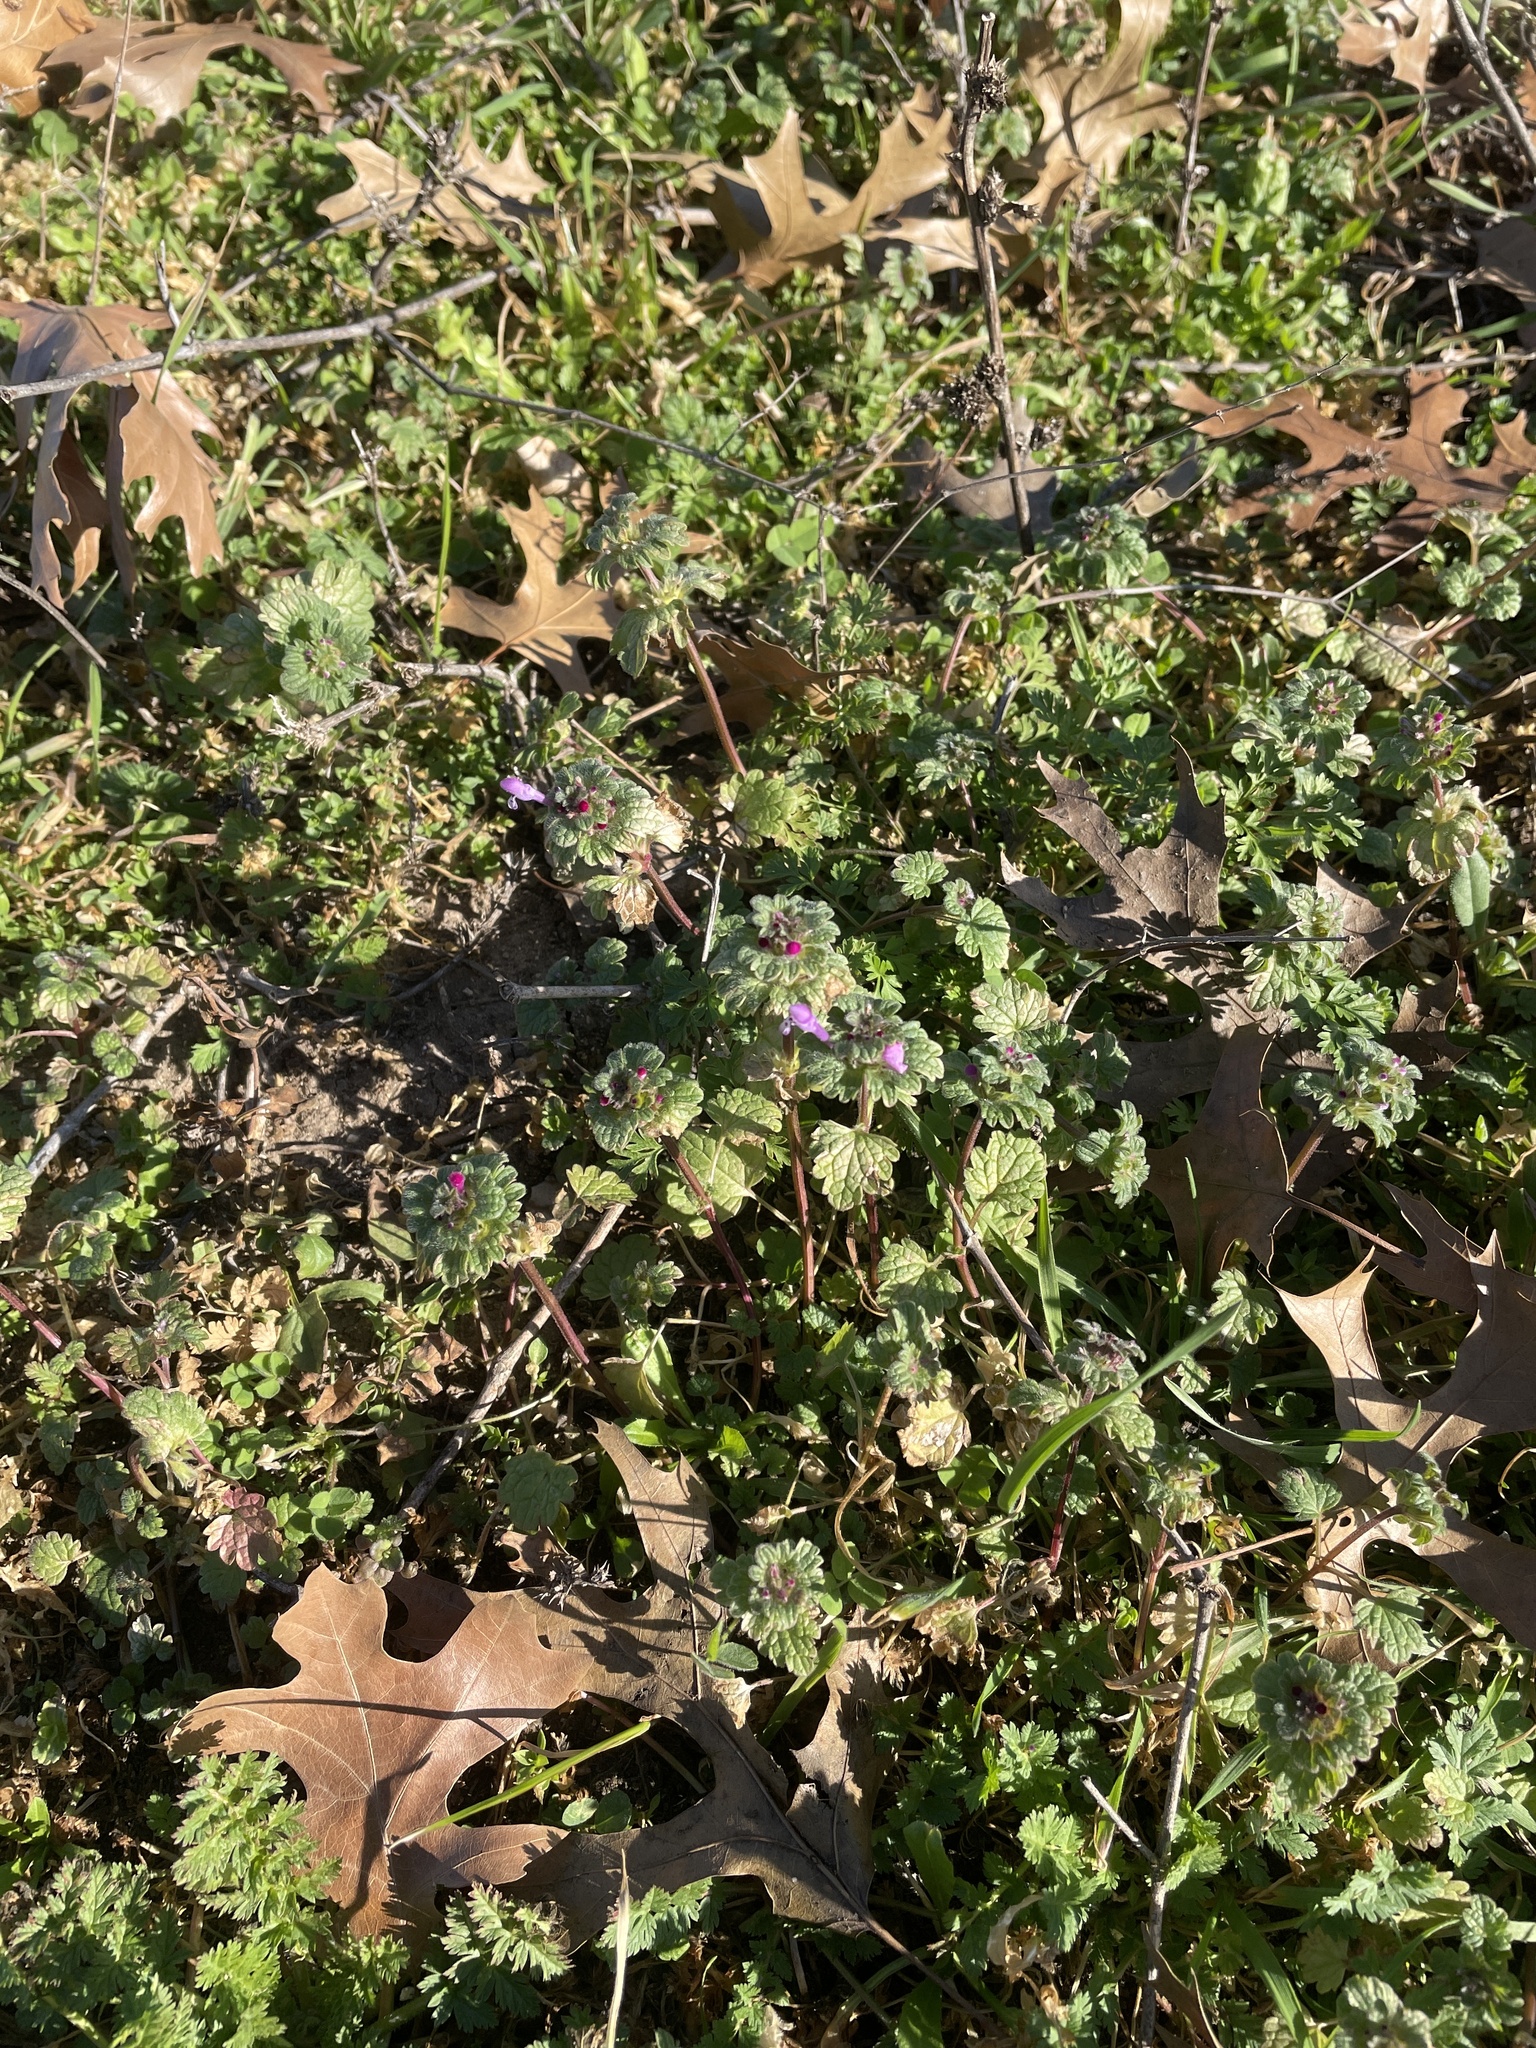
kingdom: Plantae
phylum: Tracheophyta
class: Magnoliopsida
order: Lamiales
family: Lamiaceae
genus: Lamium
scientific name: Lamium amplexicaule
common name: Henbit dead-nettle
